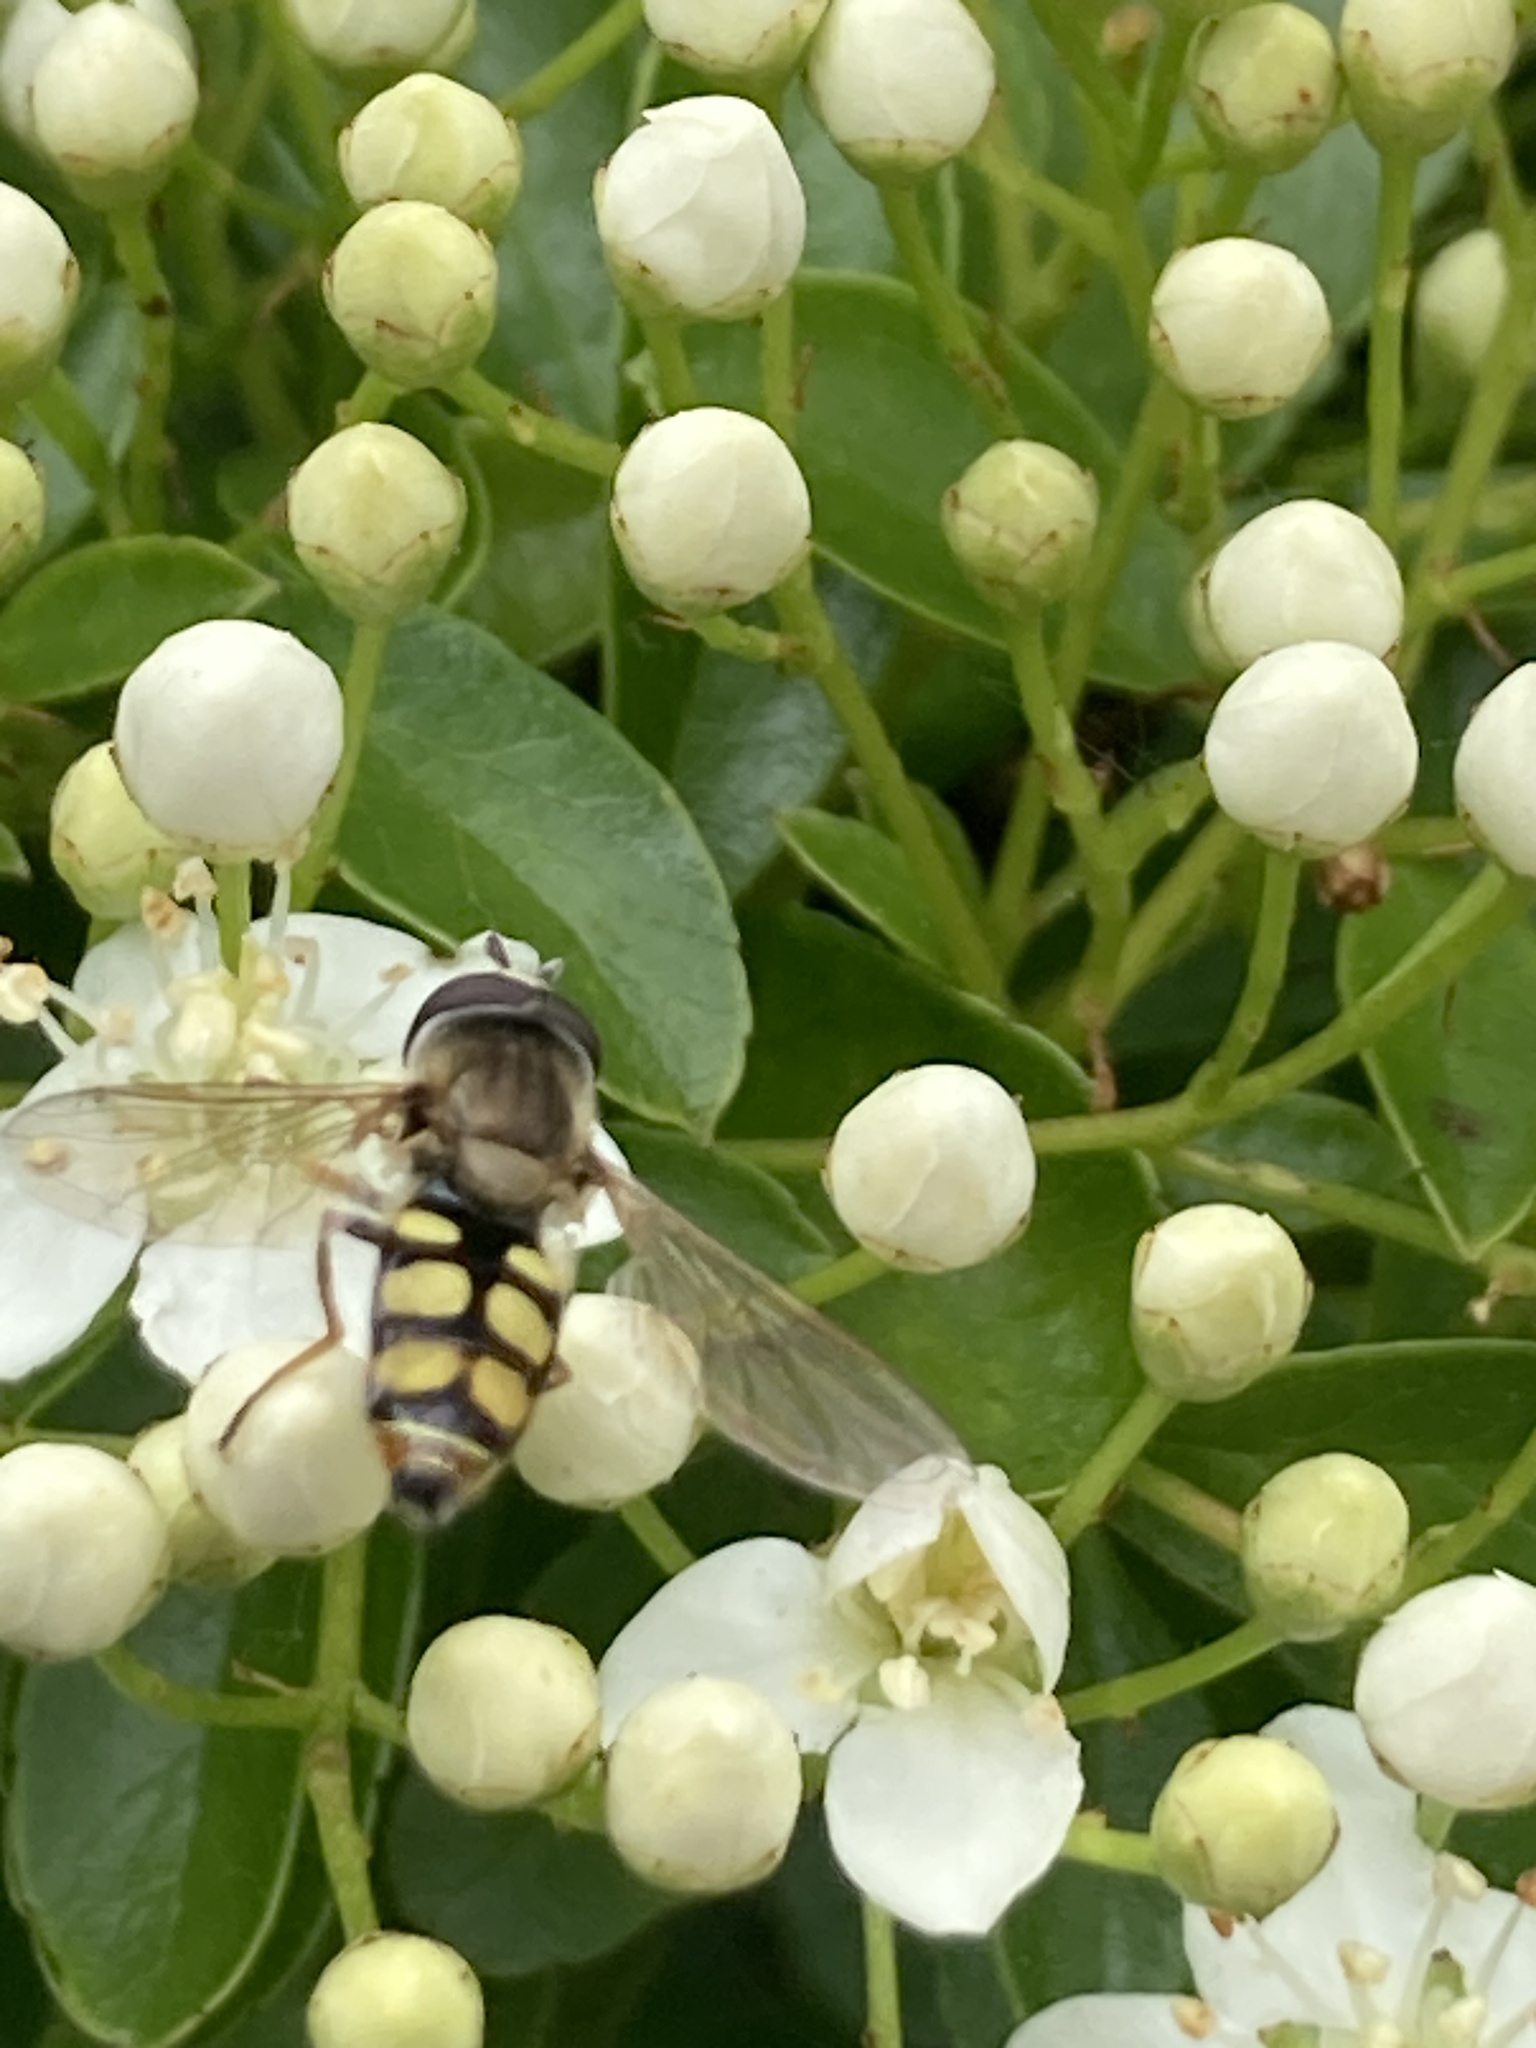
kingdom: Animalia
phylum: Arthropoda
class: Insecta
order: Diptera
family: Syrphidae
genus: Eupeodes
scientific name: Eupeodes corollae
